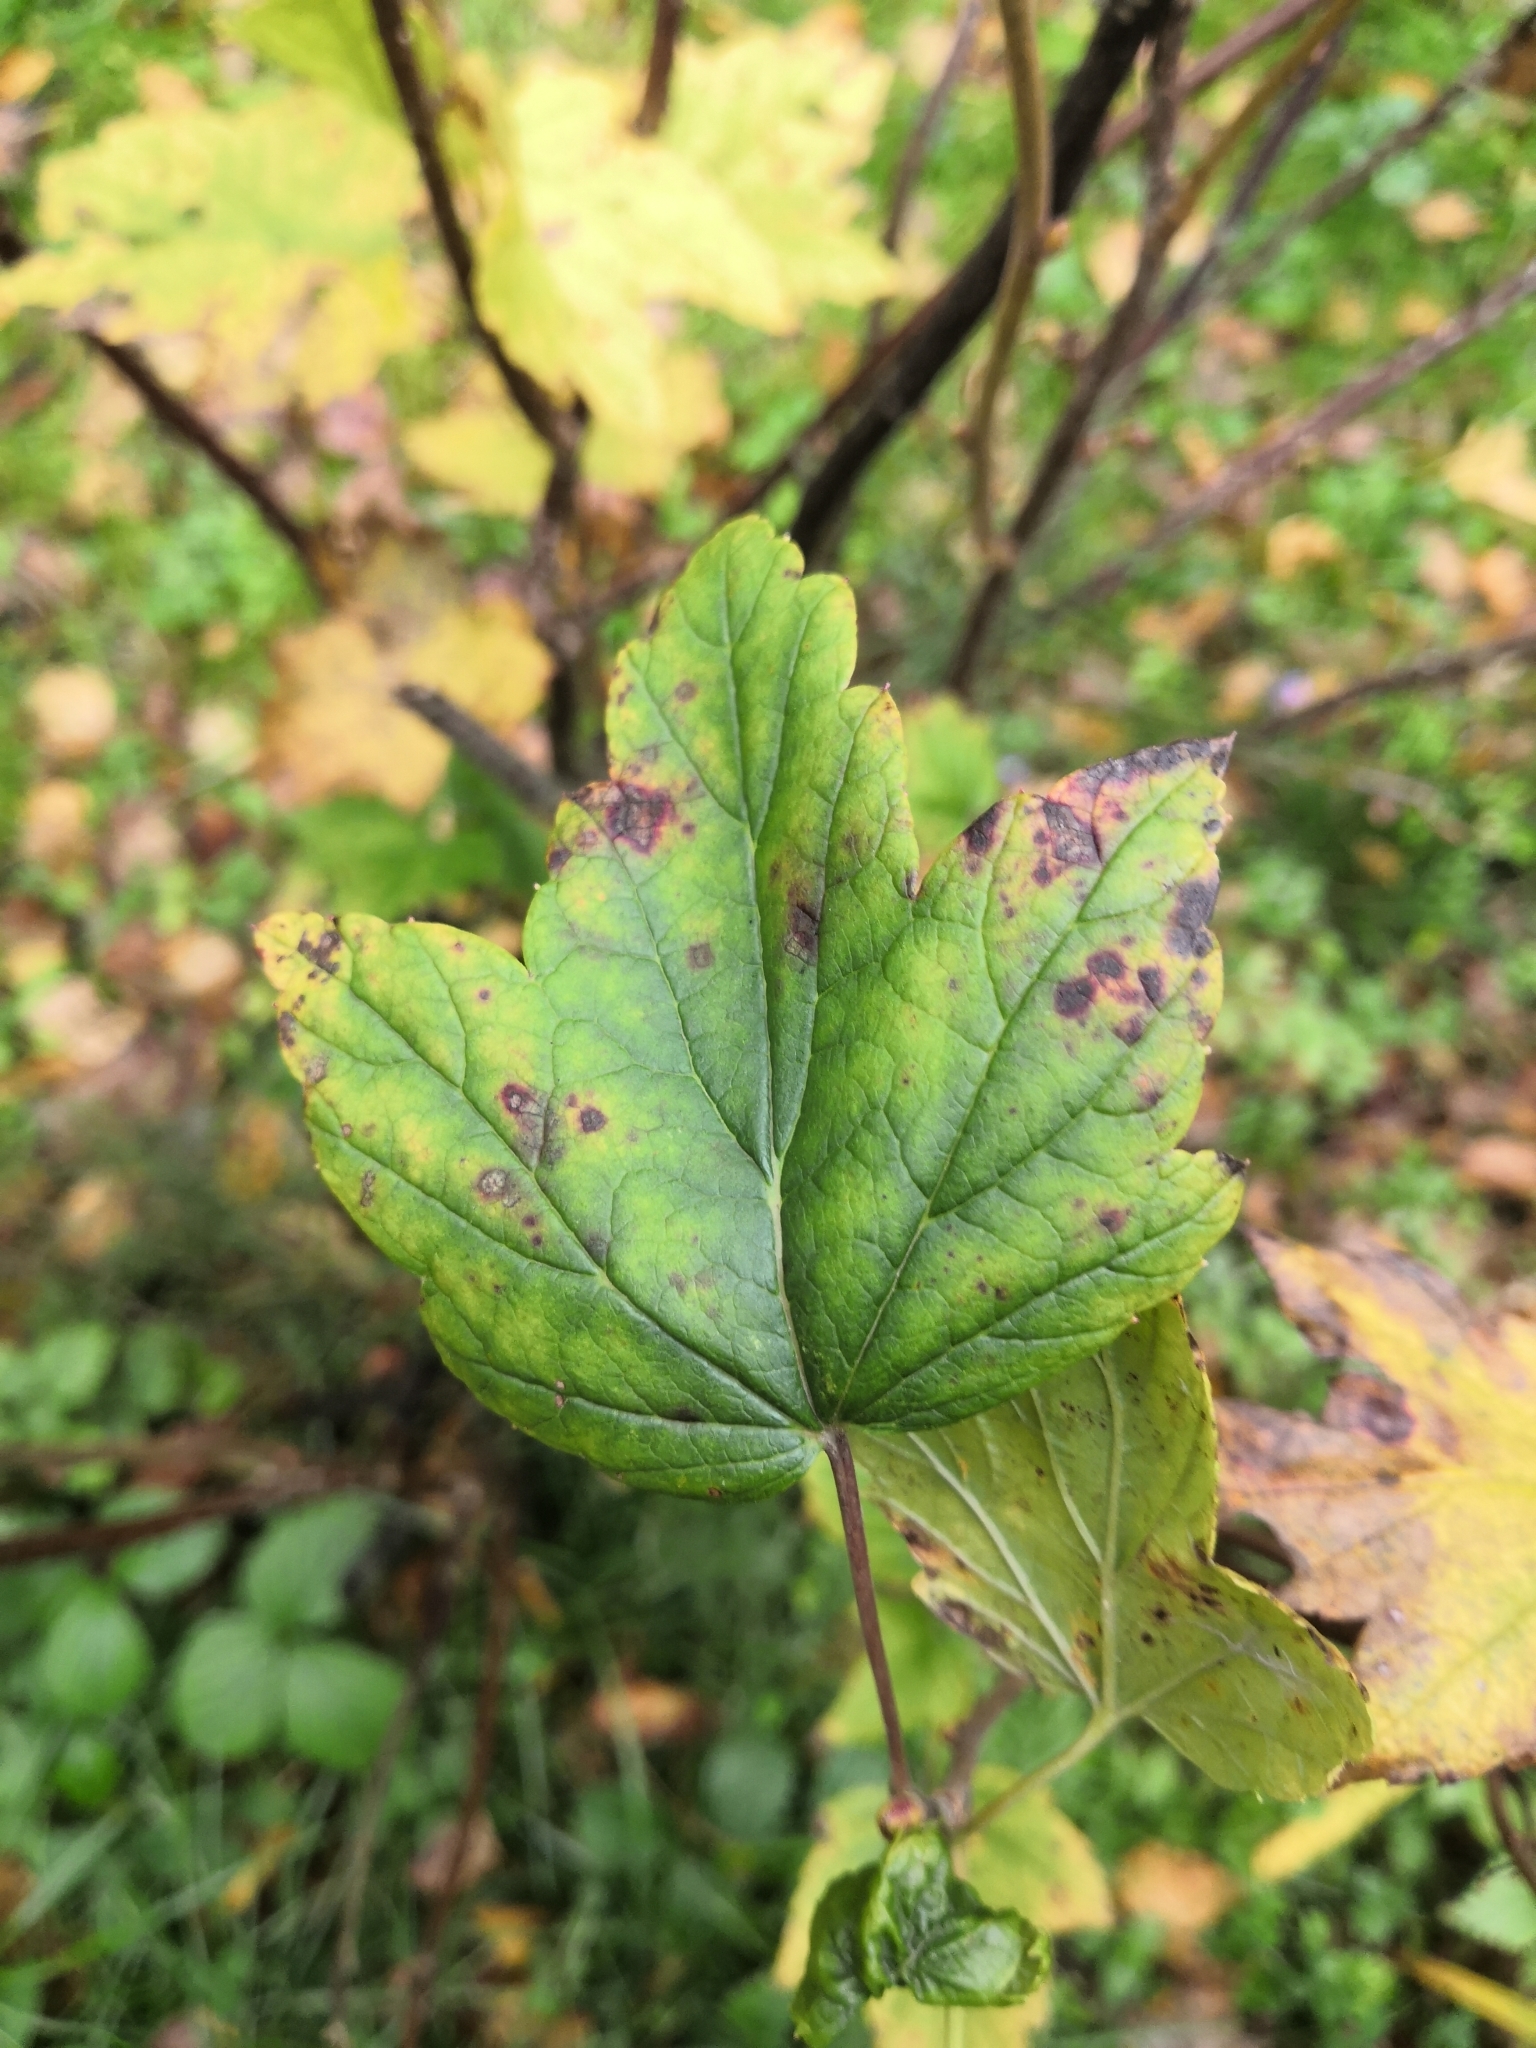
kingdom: Plantae
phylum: Tracheophyta
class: Magnoliopsida
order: Saxifragales
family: Grossulariaceae
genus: Ribes
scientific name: Ribes nigrum
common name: Black currant
